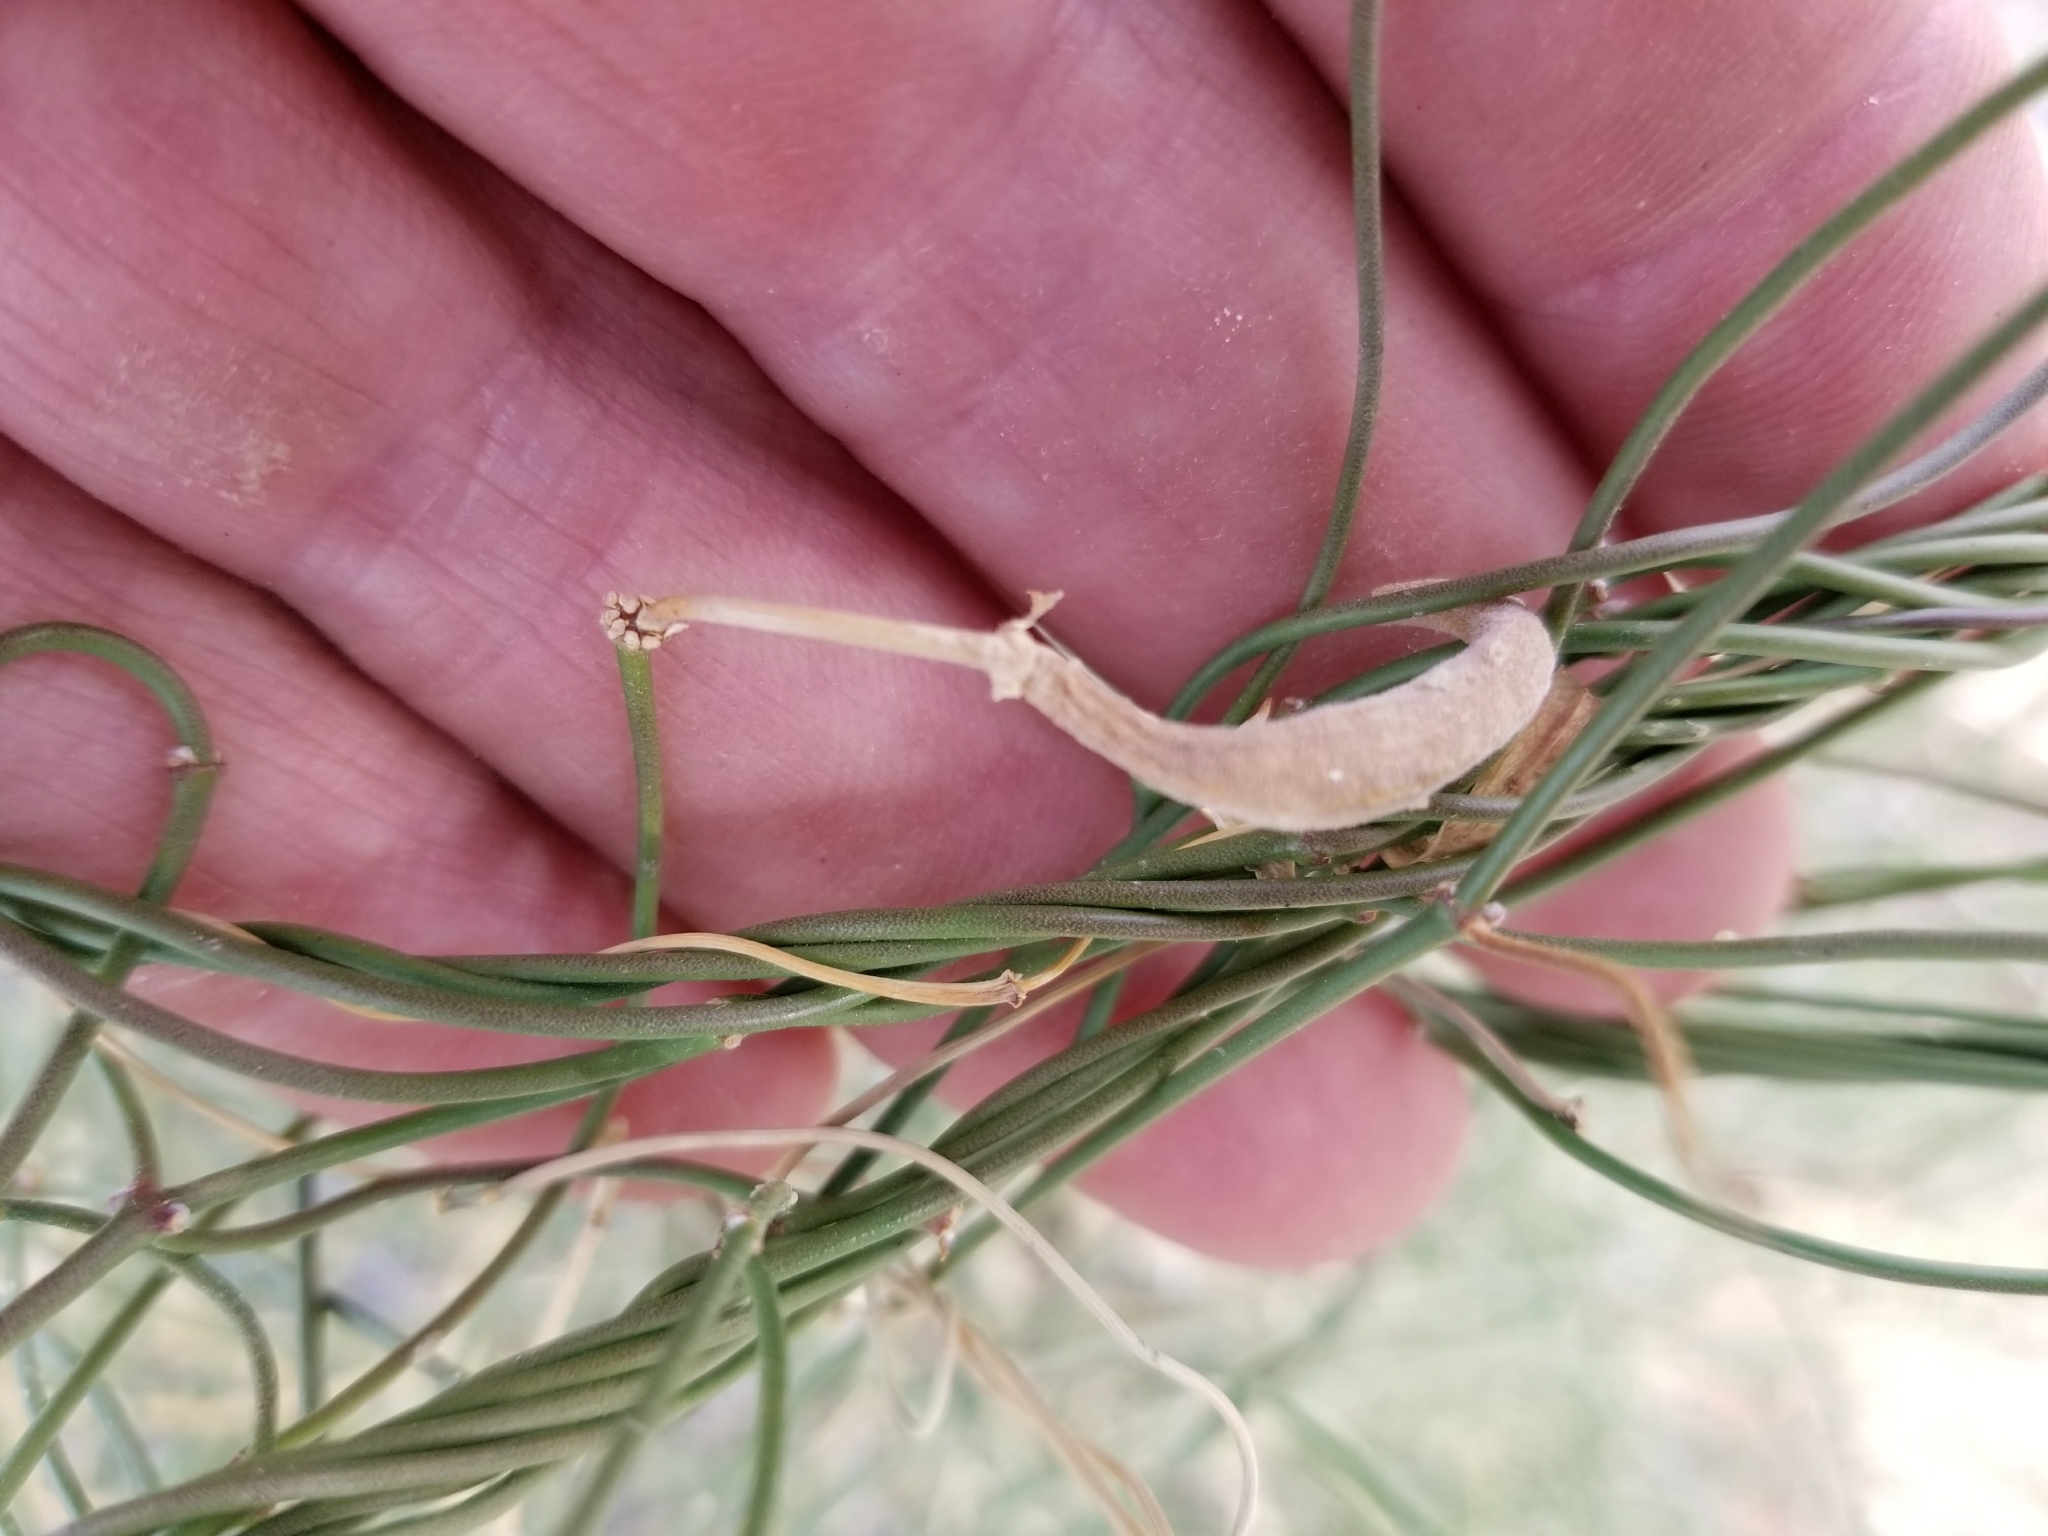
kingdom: Plantae
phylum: Tracheophyta
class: Magnoliopsida
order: Gentianales
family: Apocynaceae
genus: Funastrum
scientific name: Funastrum heterophyllum
